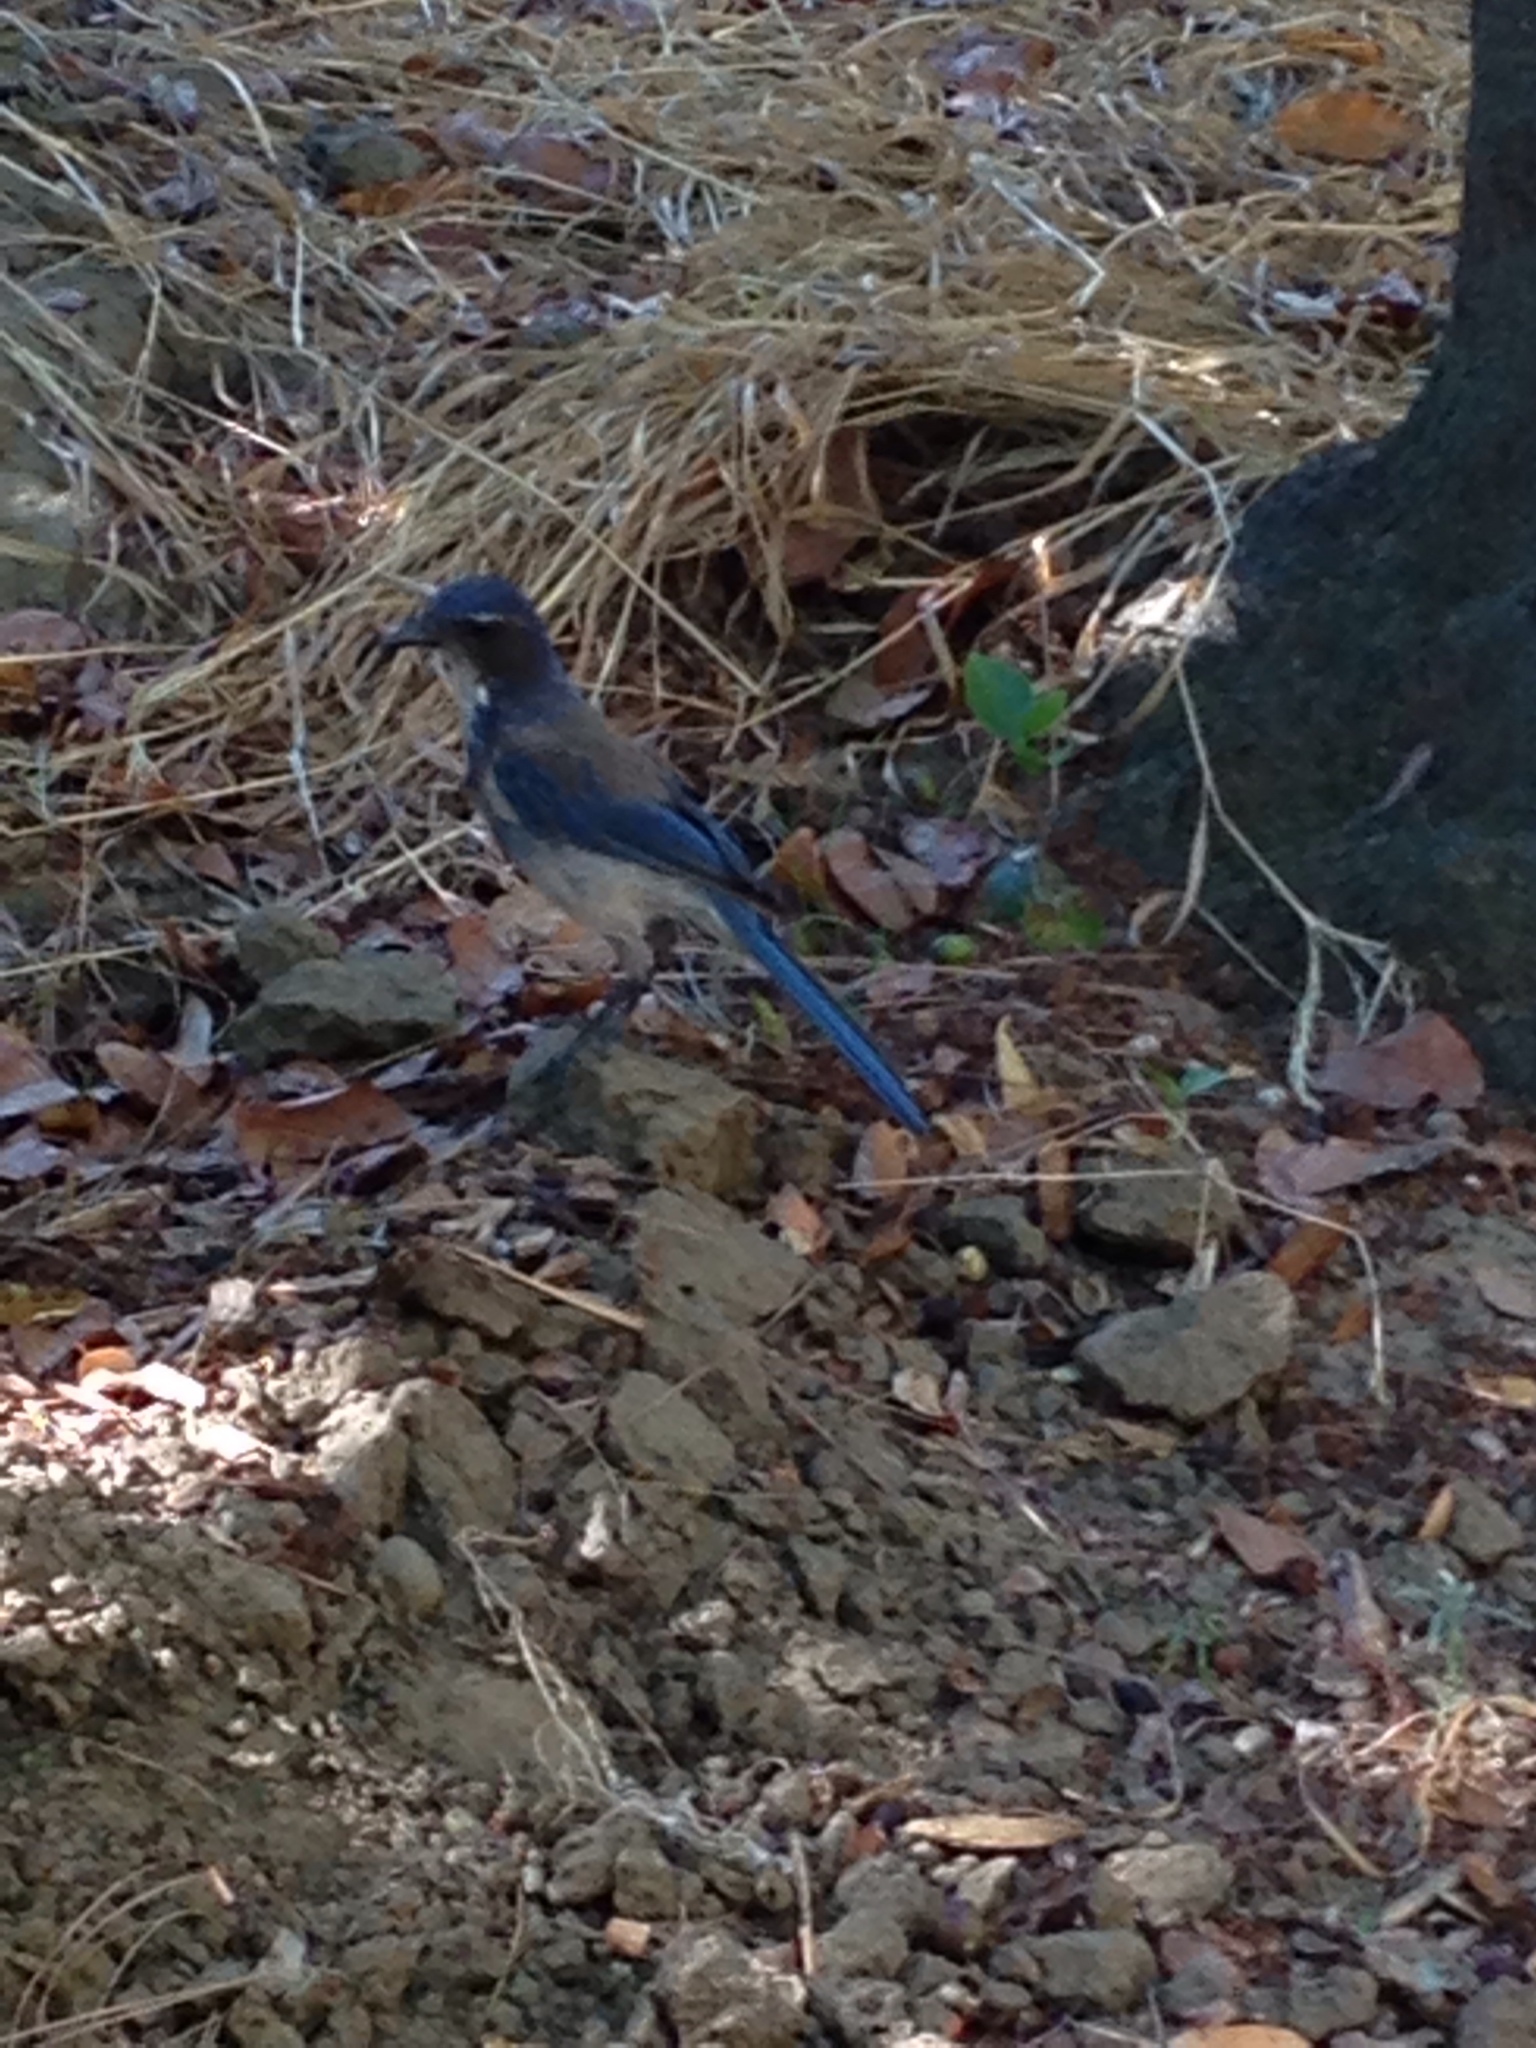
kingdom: Animalia
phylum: Chordata
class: Aves
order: Passeriformes
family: Corvidae
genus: Aphelocoma
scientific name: Aphelocoma californica
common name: California scrub-jay
